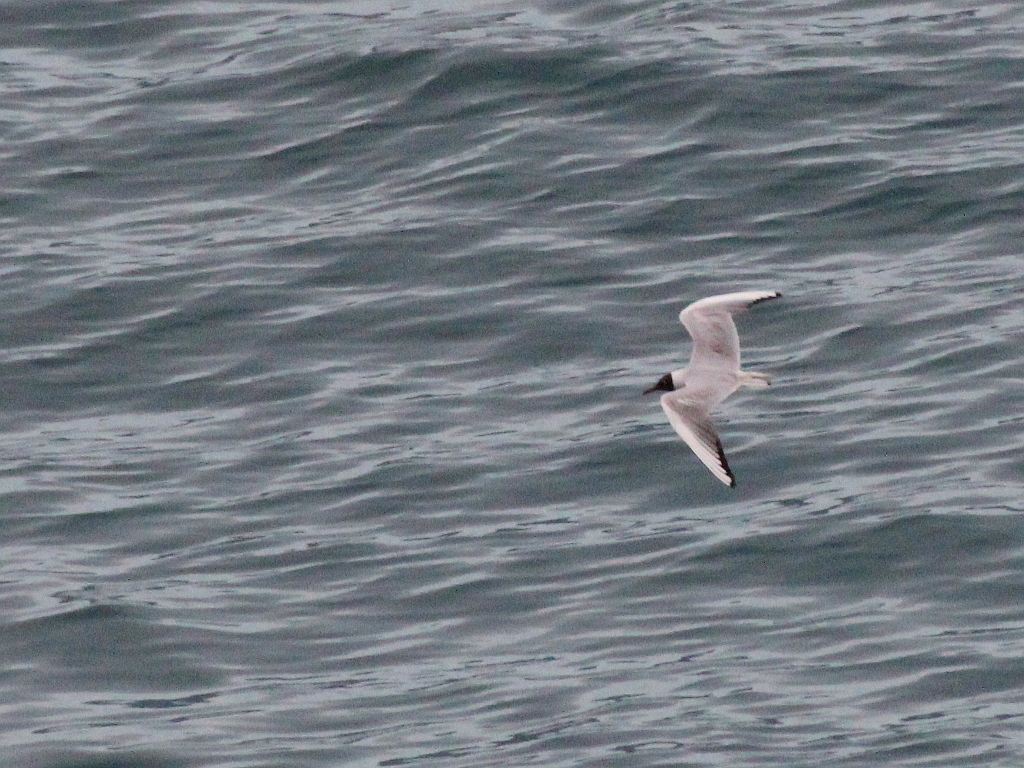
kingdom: Animalia
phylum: Chordata
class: Aves
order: Charadriiformes
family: Laridae
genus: Chroicocephalus
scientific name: Chroicocephalus ridibundus
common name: Black-headed gull
